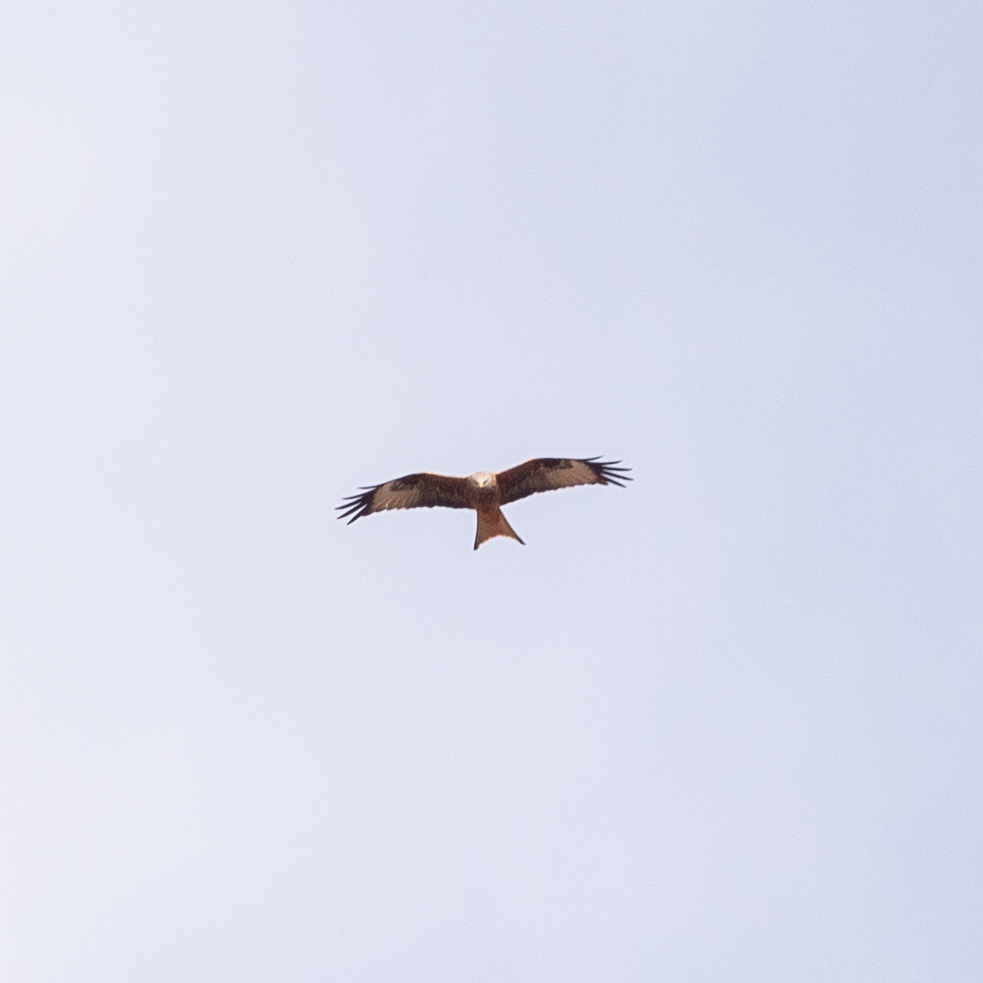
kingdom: Animalia
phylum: Chordata
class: Aves
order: Accipitriformes
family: Accipitridae
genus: Milvus
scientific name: Milvus milvus
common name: Red kite
